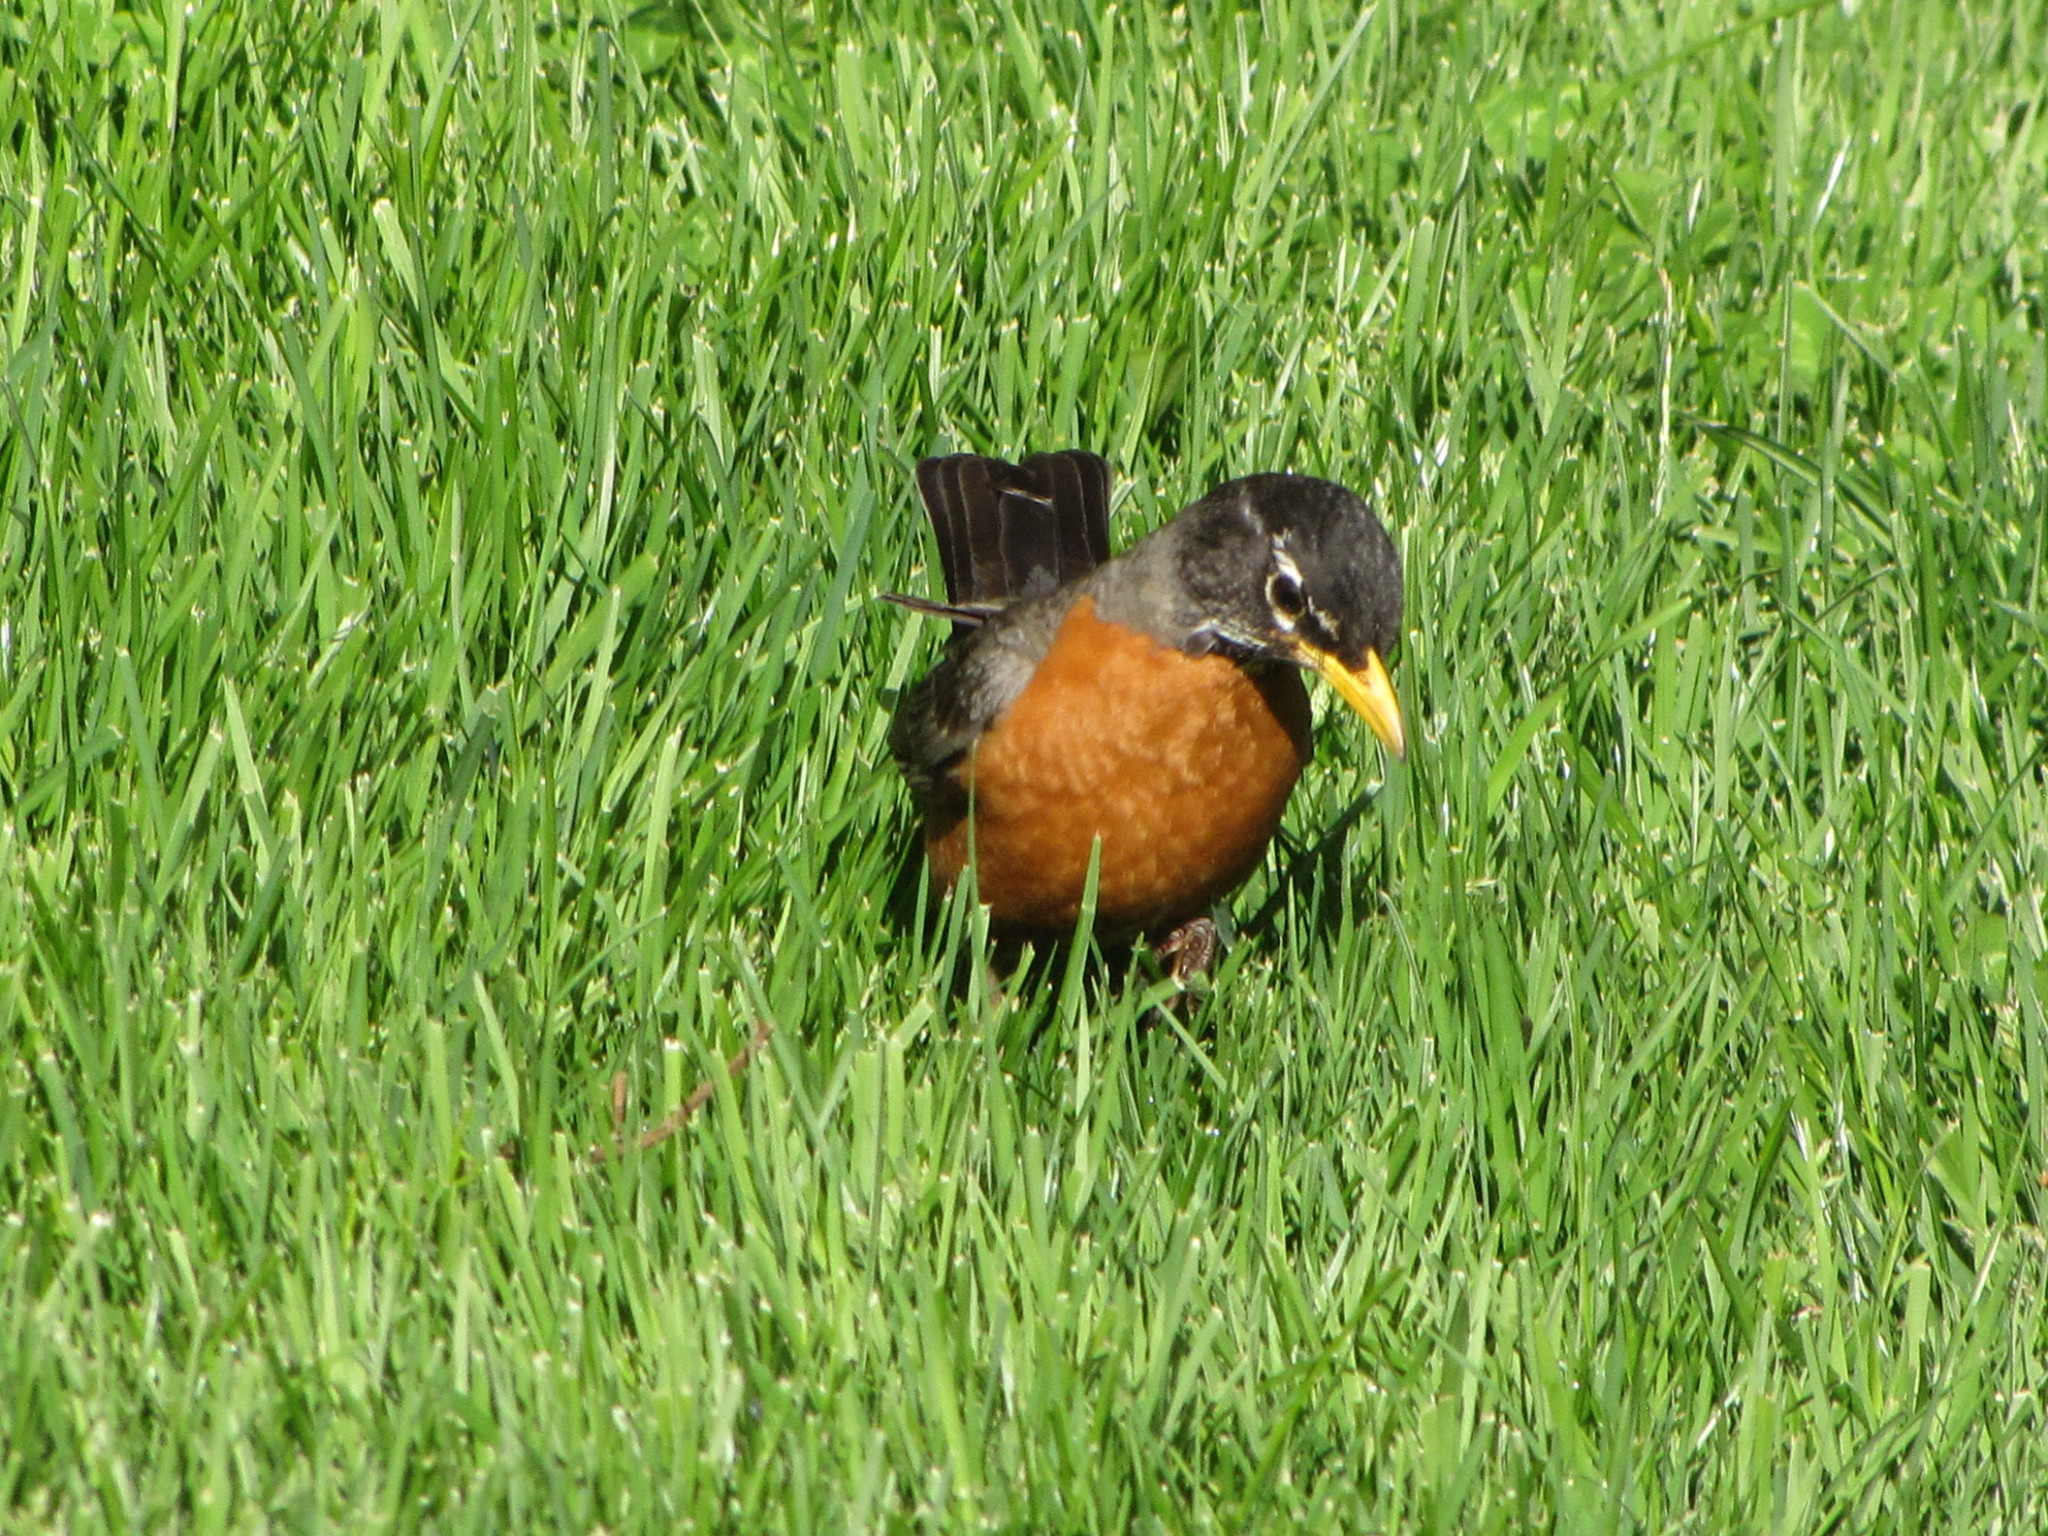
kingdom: Animalia
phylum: Chordata
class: Aves
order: Passeriformes
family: Turdidae
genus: Turdus
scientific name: Turdus migratorius
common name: American robin
